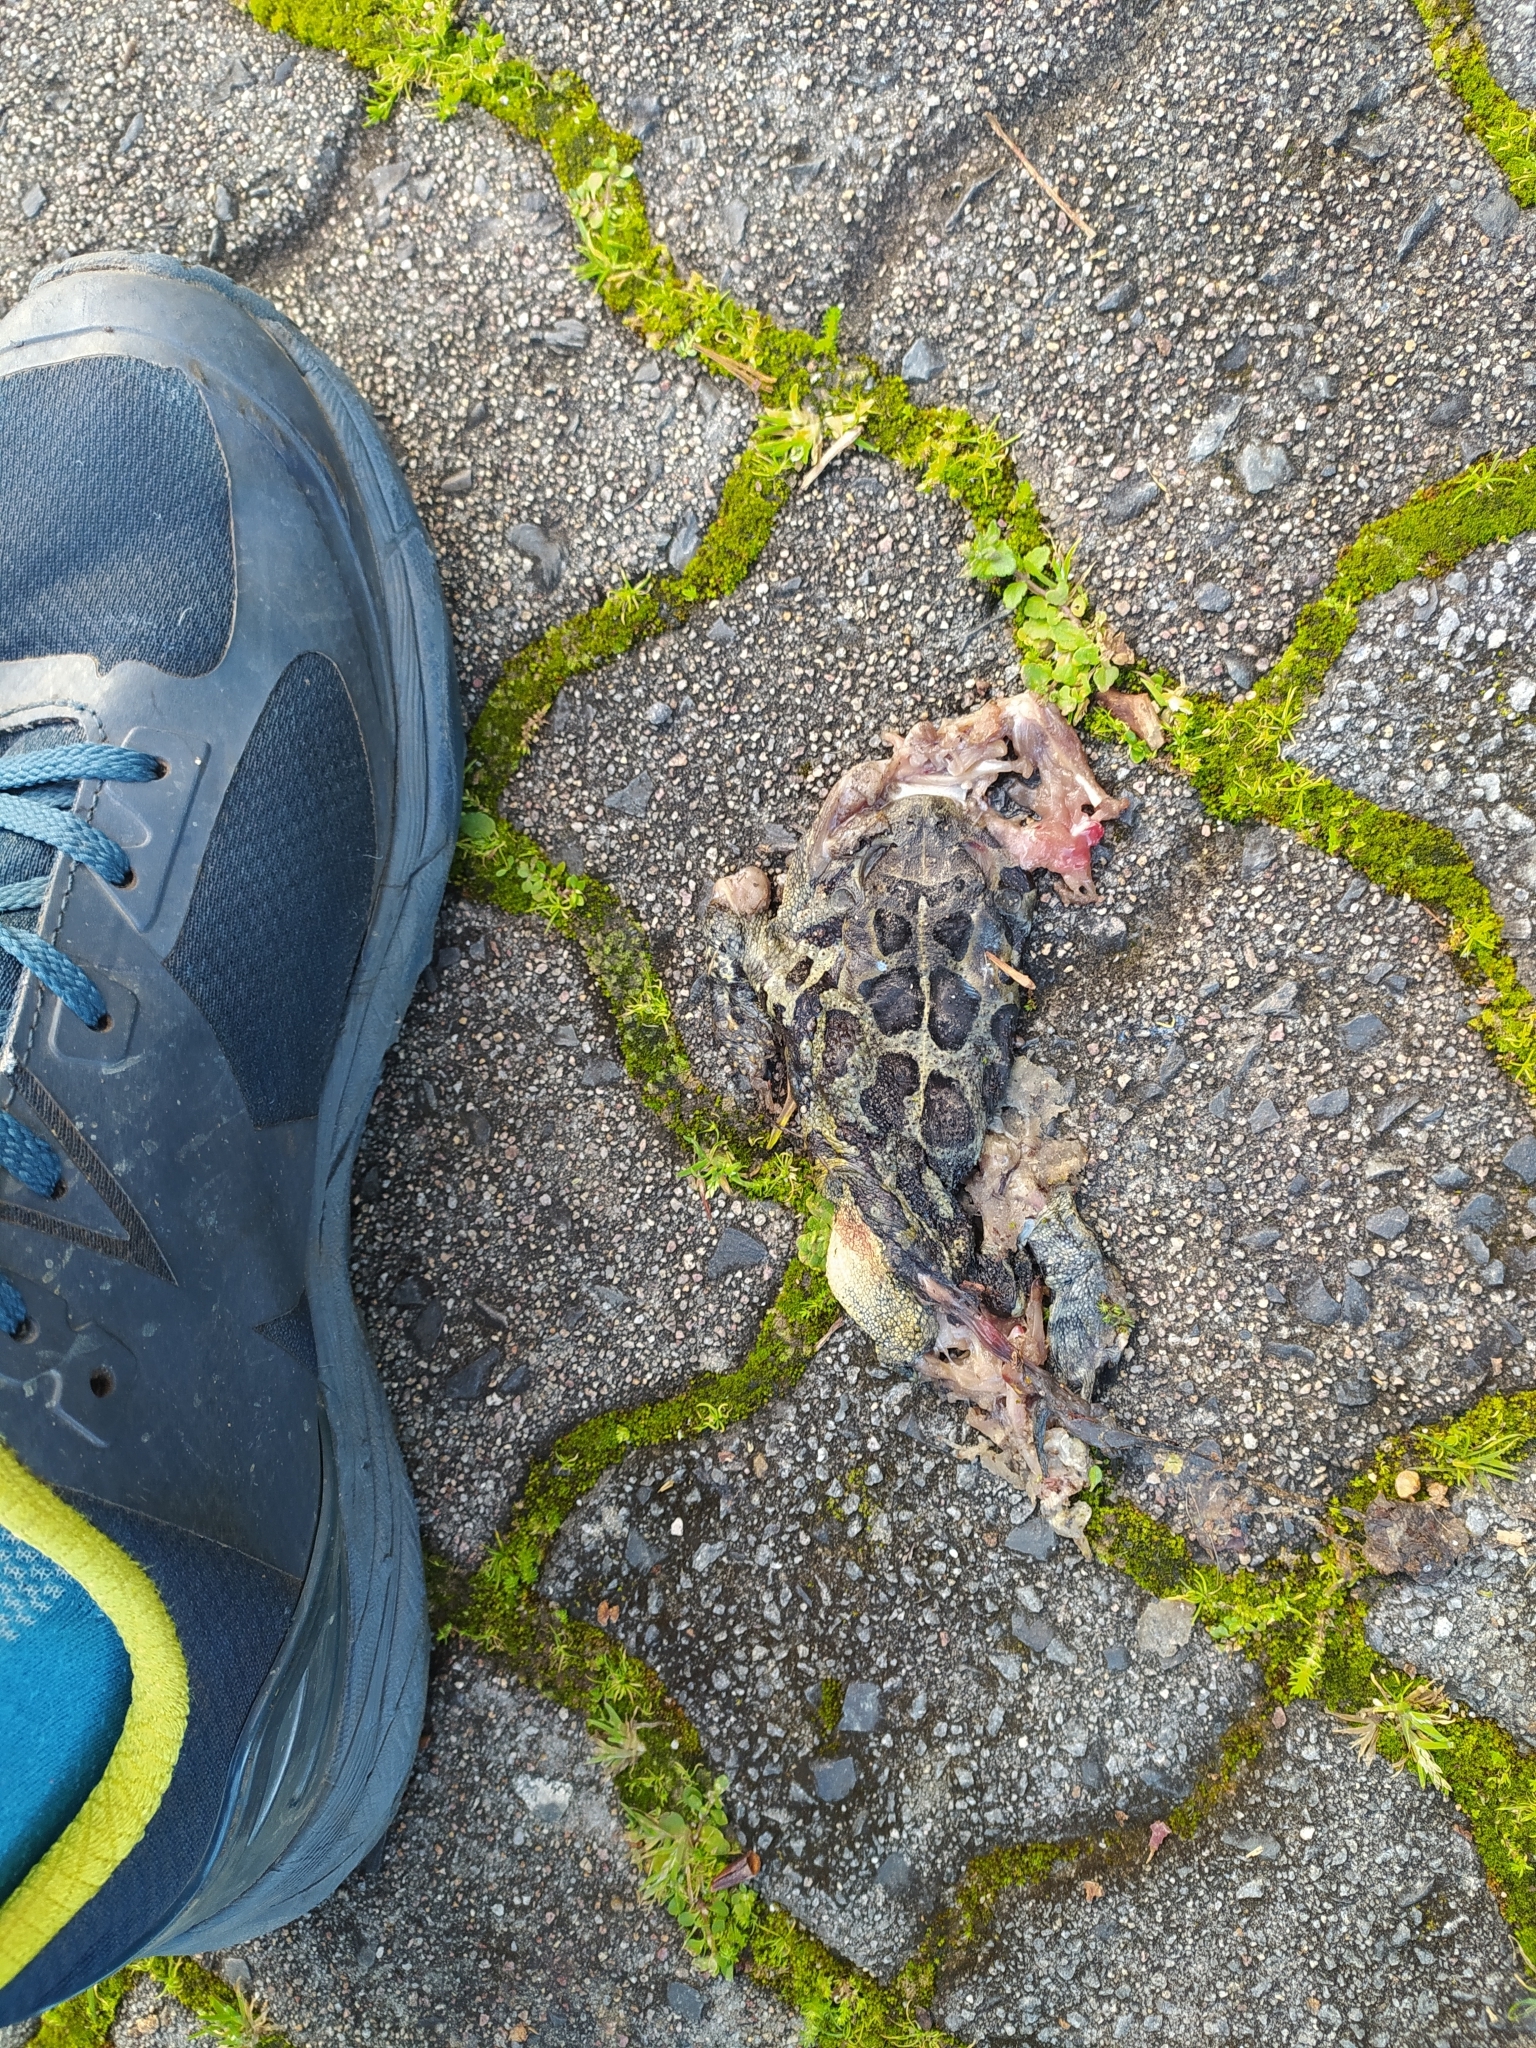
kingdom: Animalia
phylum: Chordata
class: Amphibia
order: Anura
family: Bufonidae
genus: Sclerophrys
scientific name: Sclerophrys pantherina
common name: Panther toad
